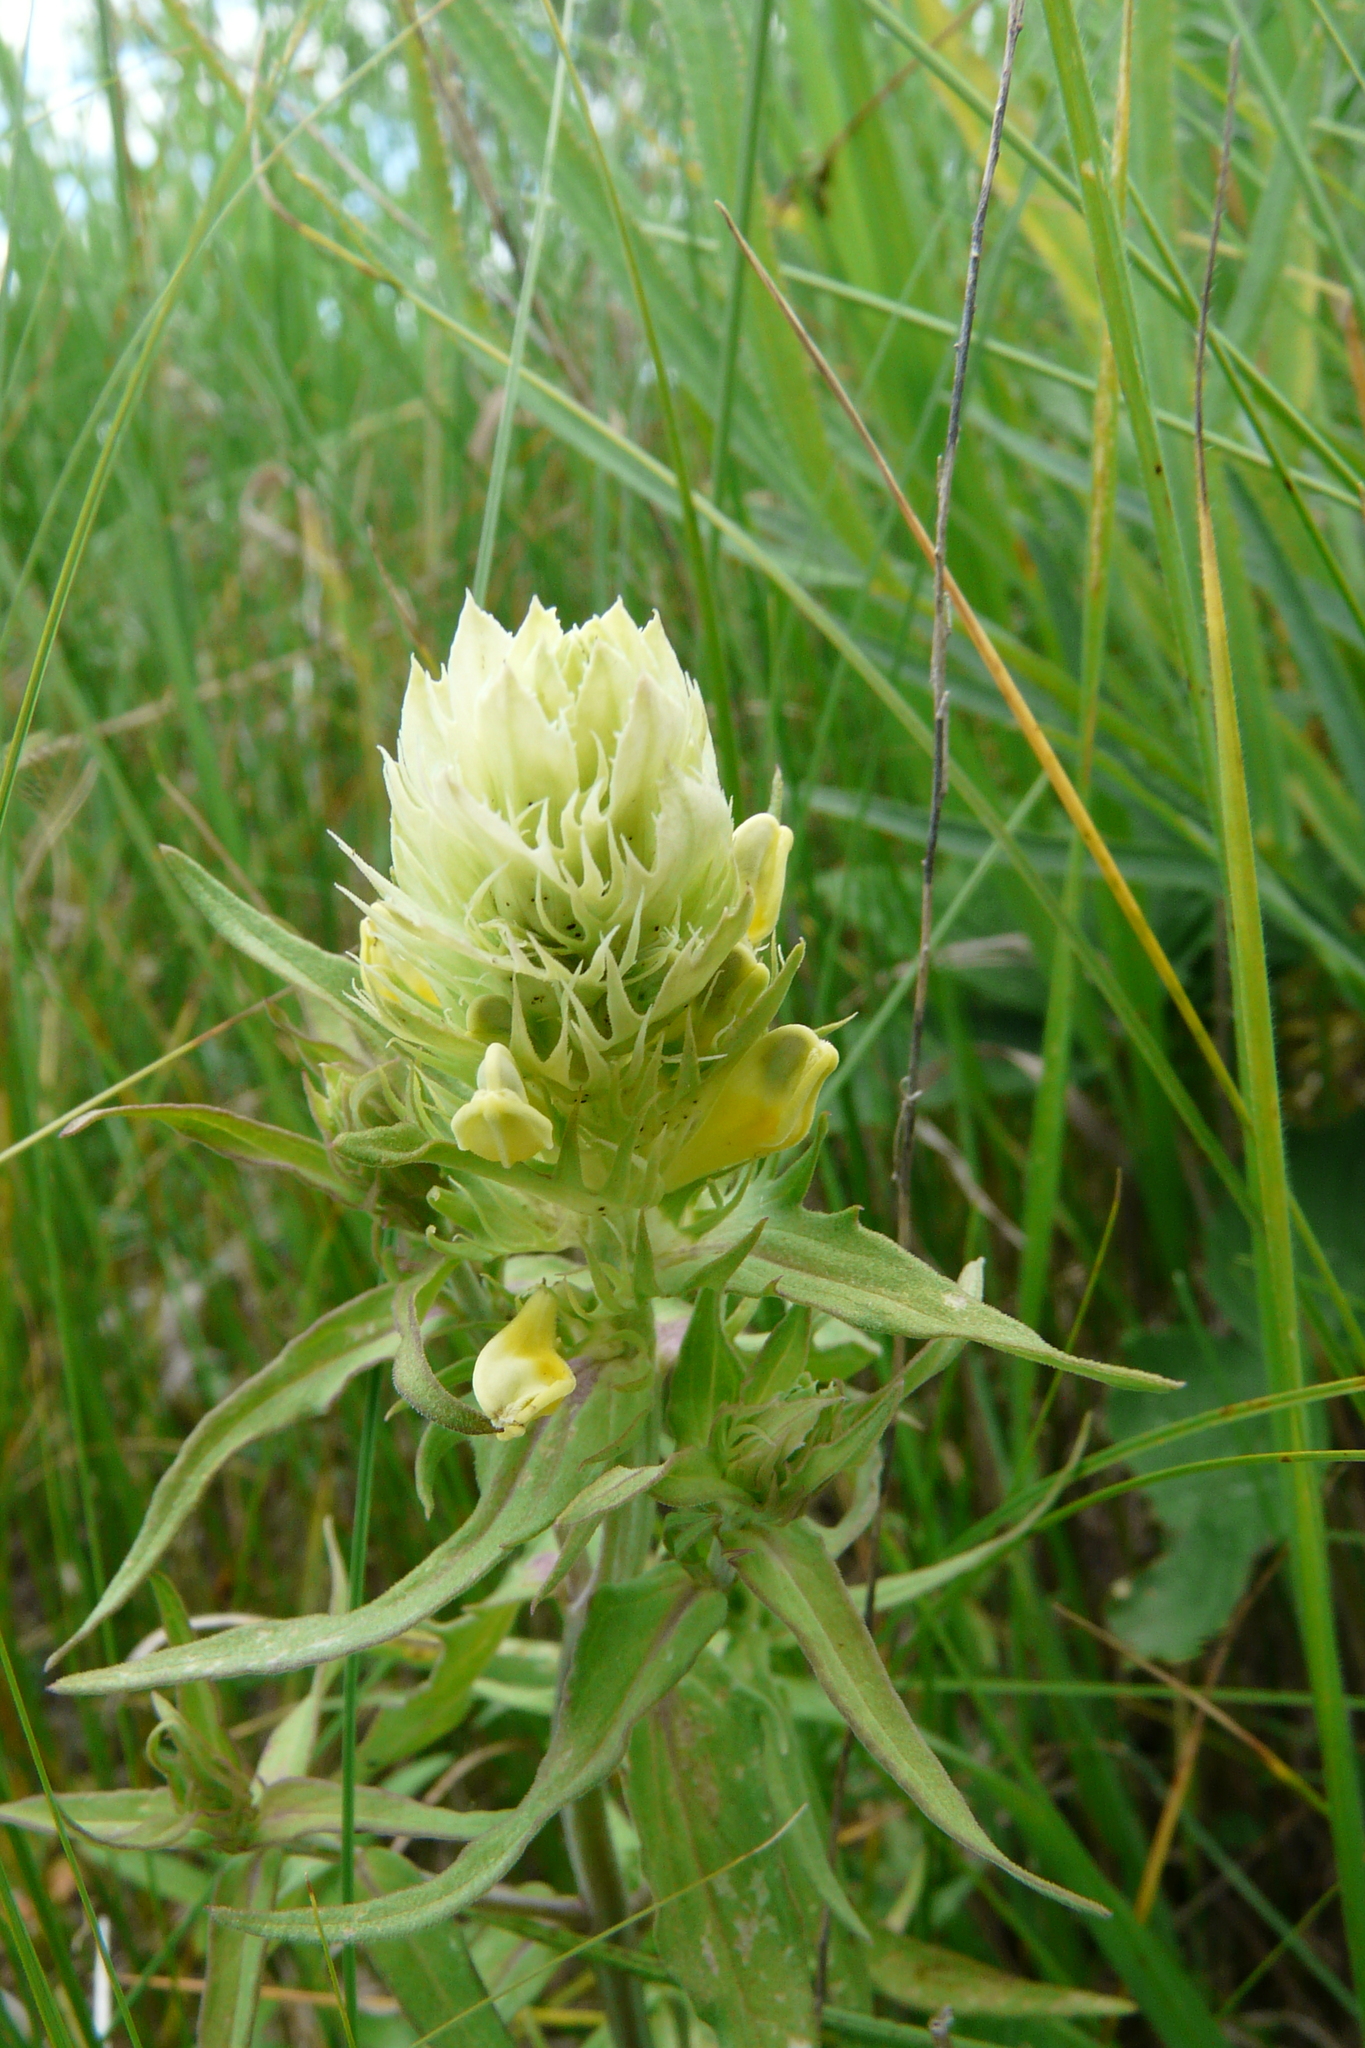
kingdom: Plantae
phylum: Tracheophyta
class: Magnoliopsida
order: Lamiales
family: Orobanchaceae
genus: Melampyrum
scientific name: Melampyrum arvense
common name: Field cow-wheat
